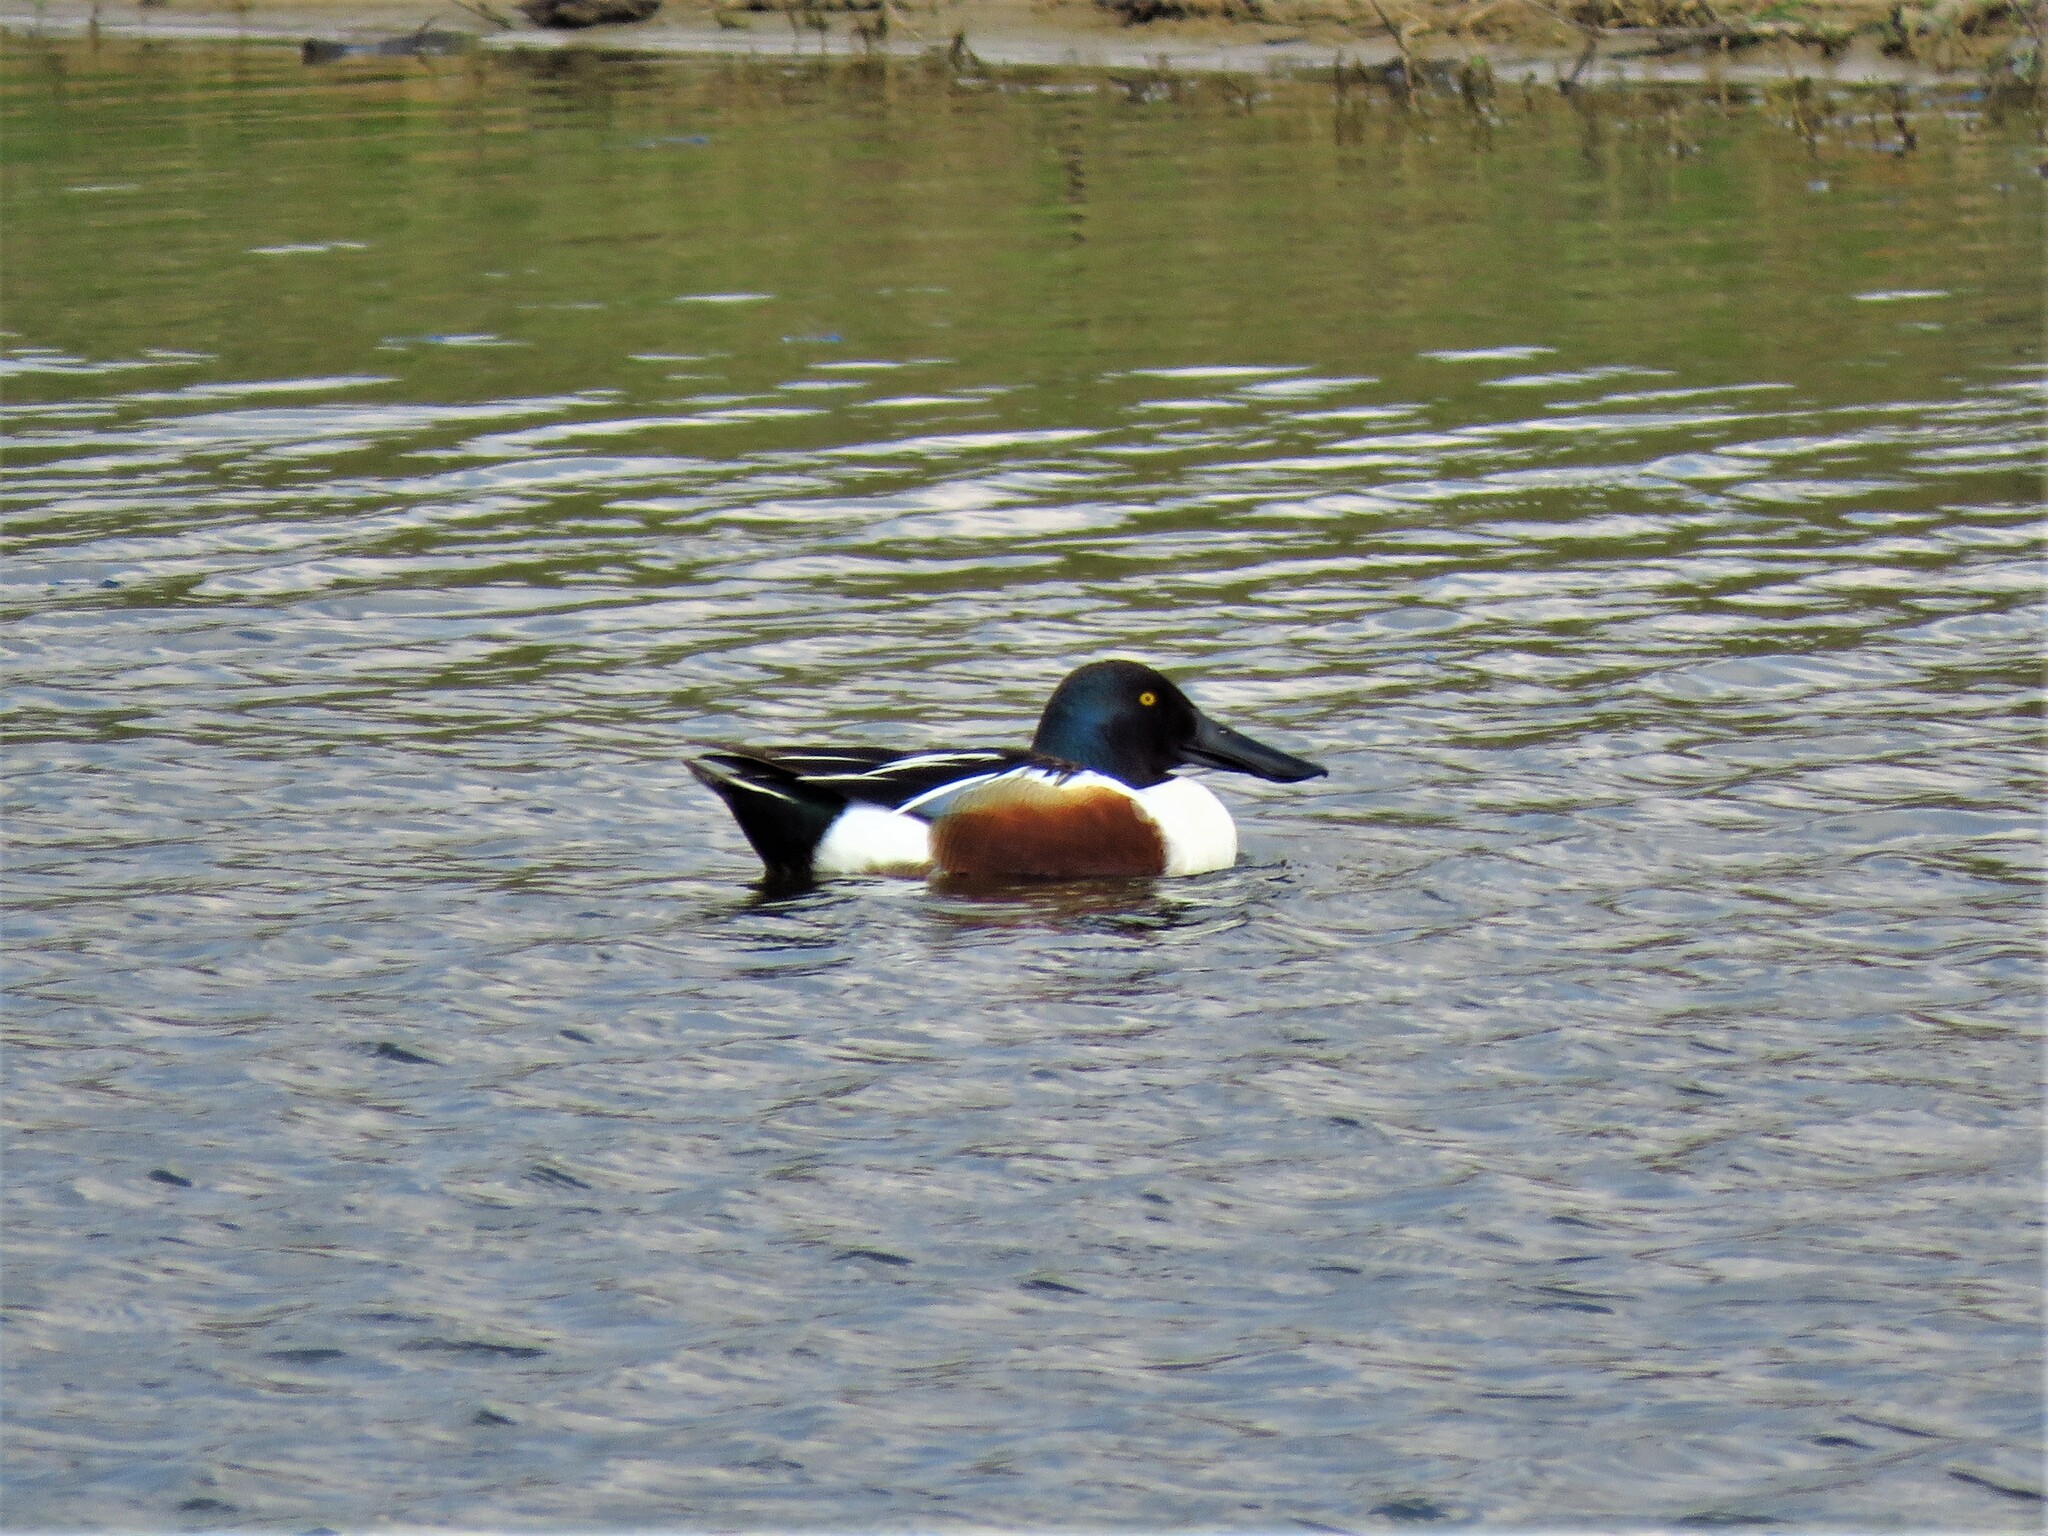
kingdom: Animalia
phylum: Chordata
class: Aves
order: Anseriformes
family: Anatidae
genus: Spatula
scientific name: Spatula clypeata
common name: Northern shoveler
